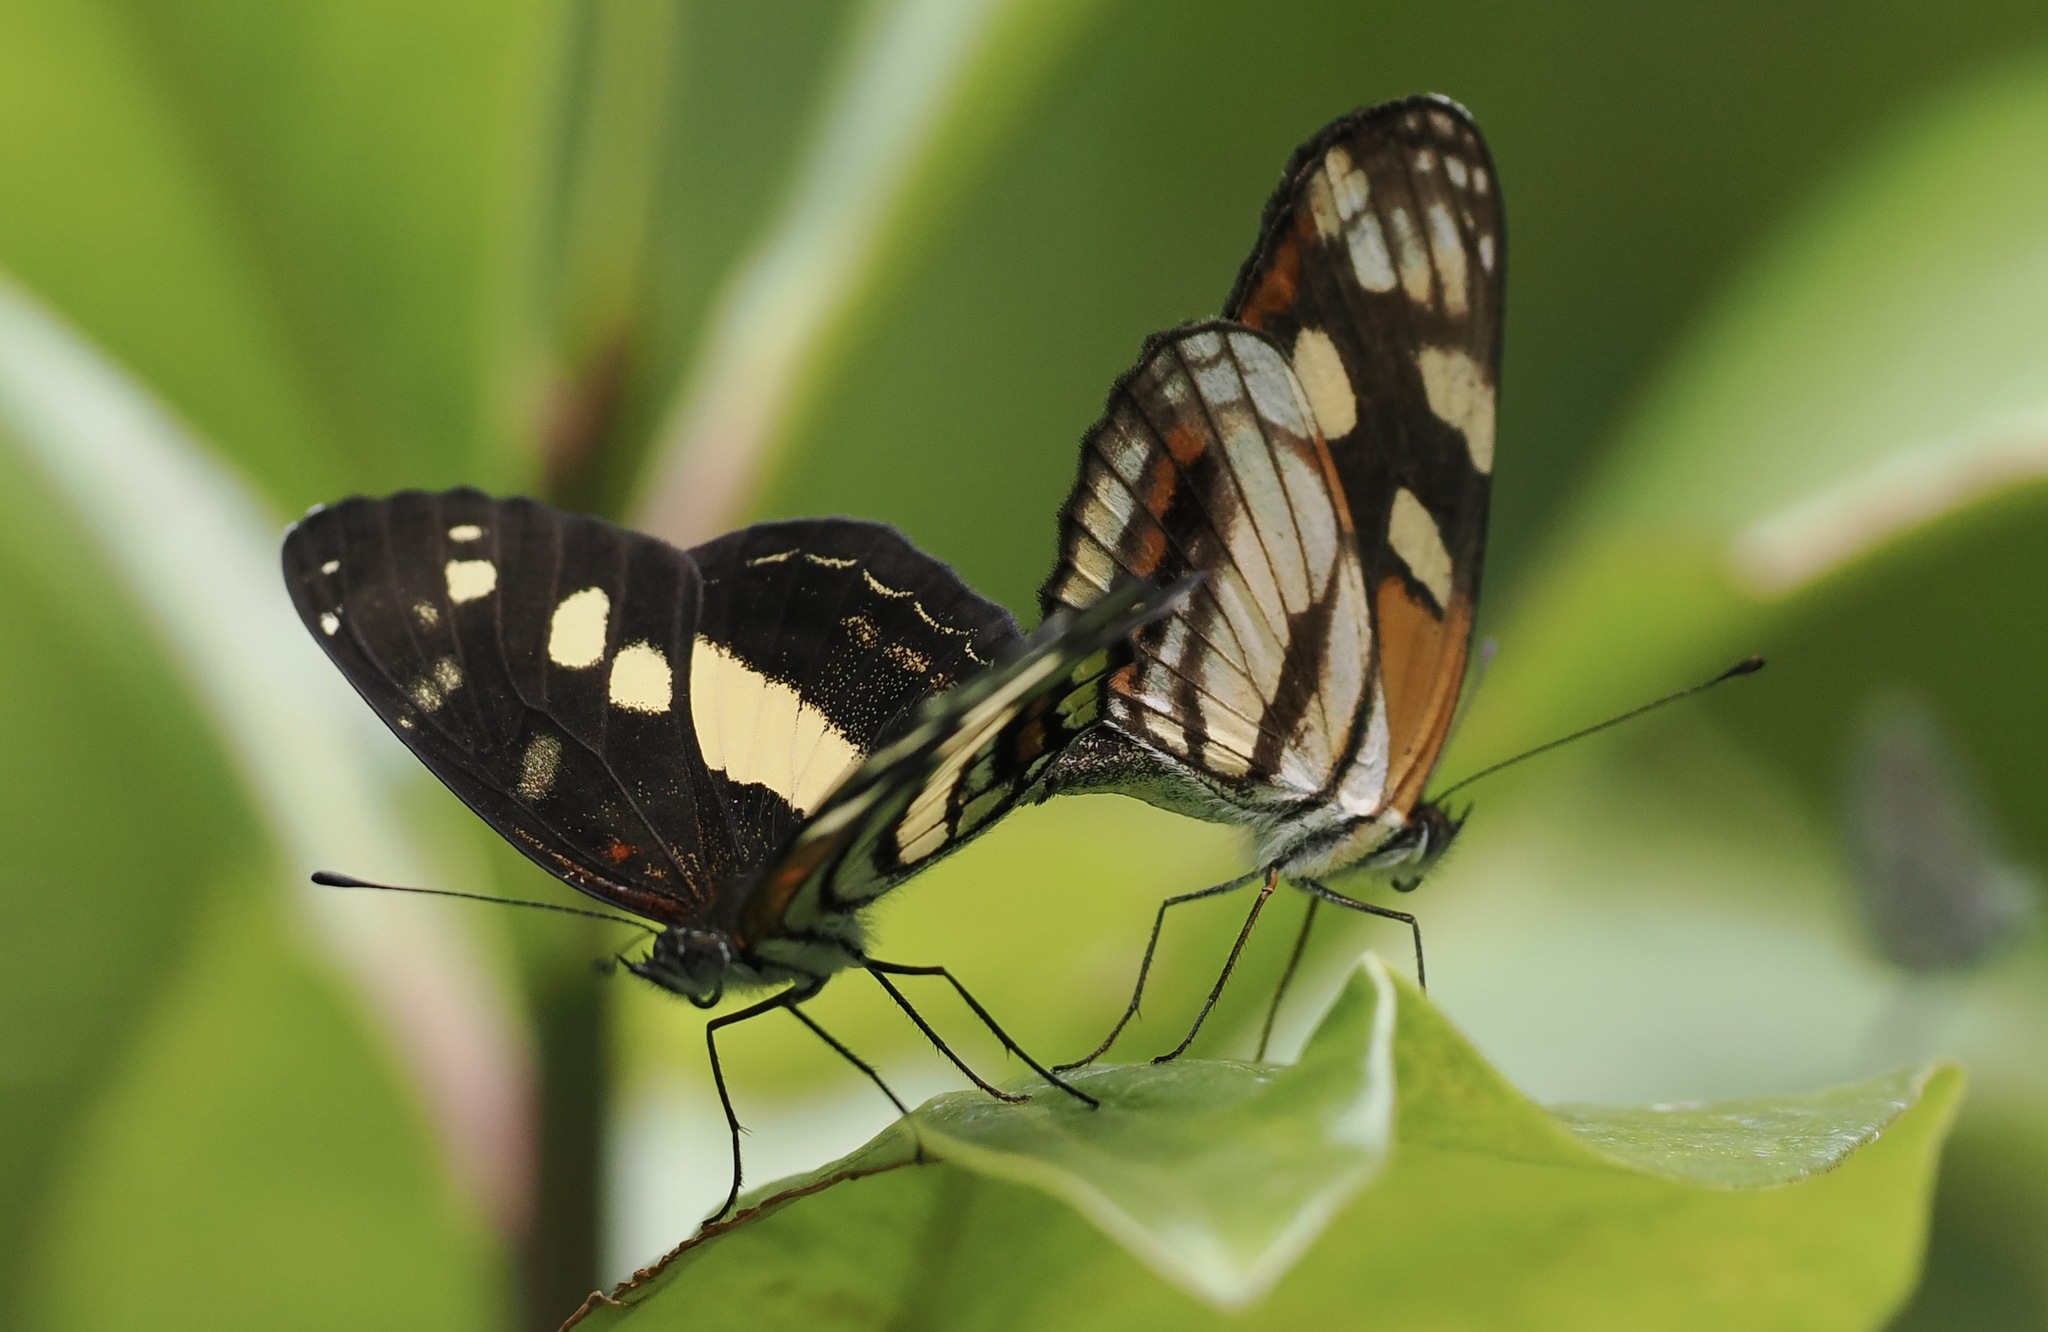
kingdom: Animalia
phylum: Arthropoda
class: Insecta
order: Lepidoptera
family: Nymphalidae
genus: Eresia
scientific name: Eresia polina
